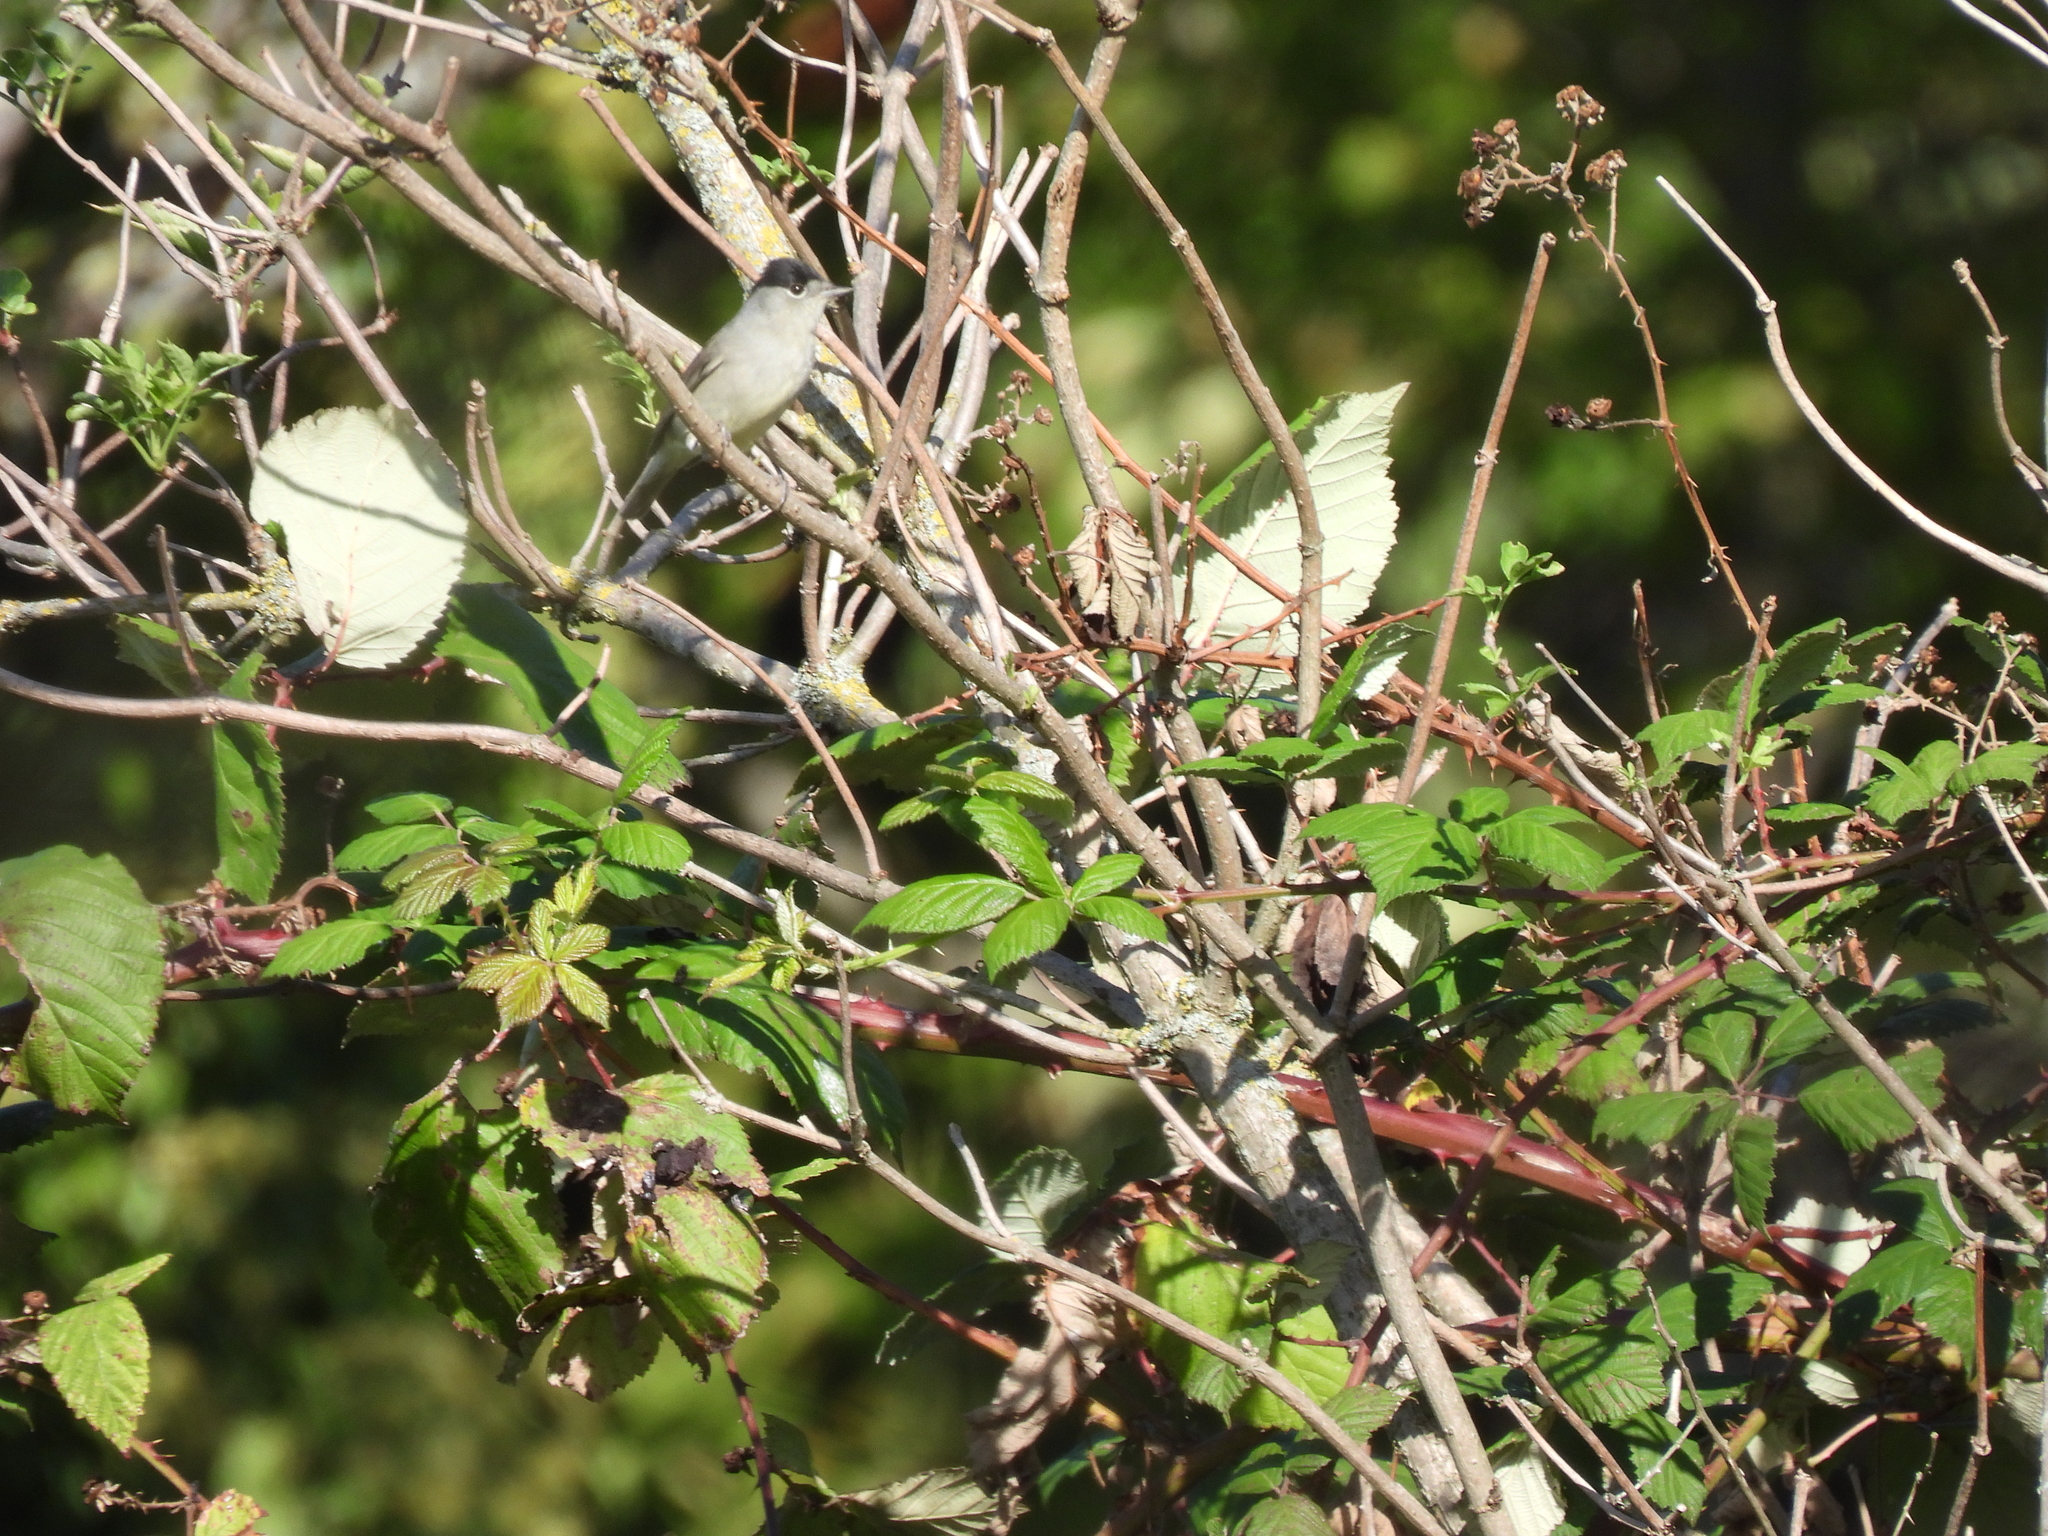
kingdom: Animalia
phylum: Chordata
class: Aves
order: Passeriformes
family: Sylviidae
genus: Sylvia
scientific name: Sylvia atricapilla
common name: Eurasian blackcap
